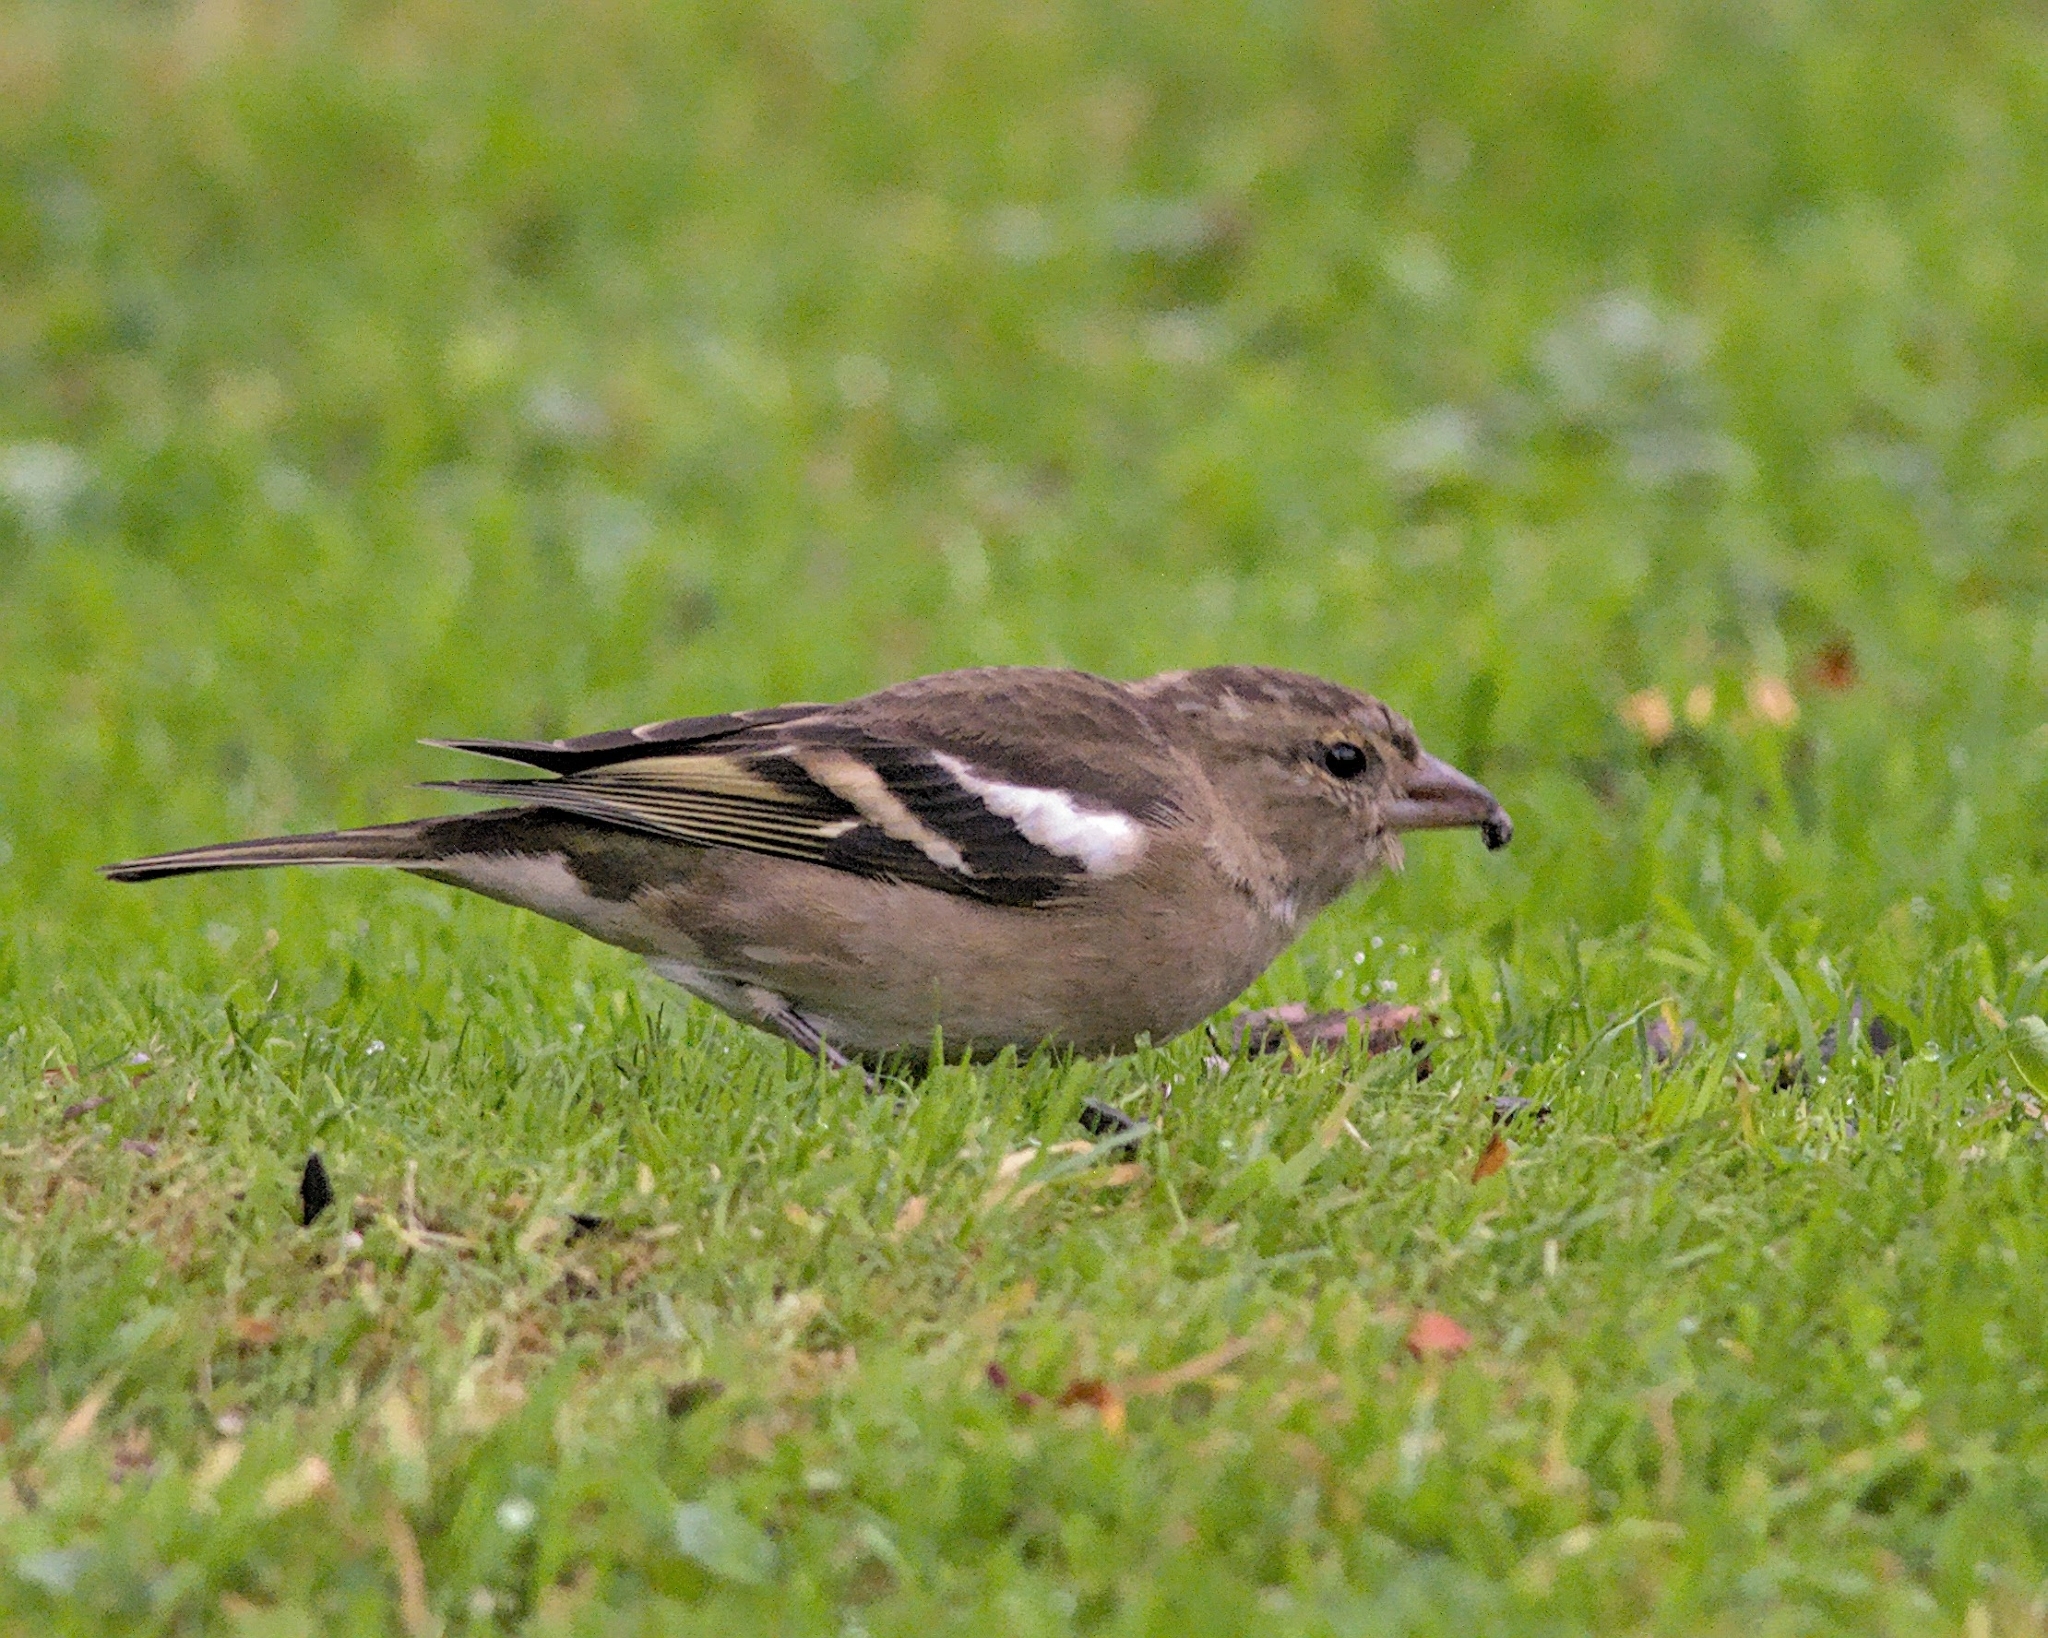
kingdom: Animalia
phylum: Chordata
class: Aves
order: Passeriformes
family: Fringillidae
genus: Fringilla
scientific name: Fringilla coelebs
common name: Common chaffinch
